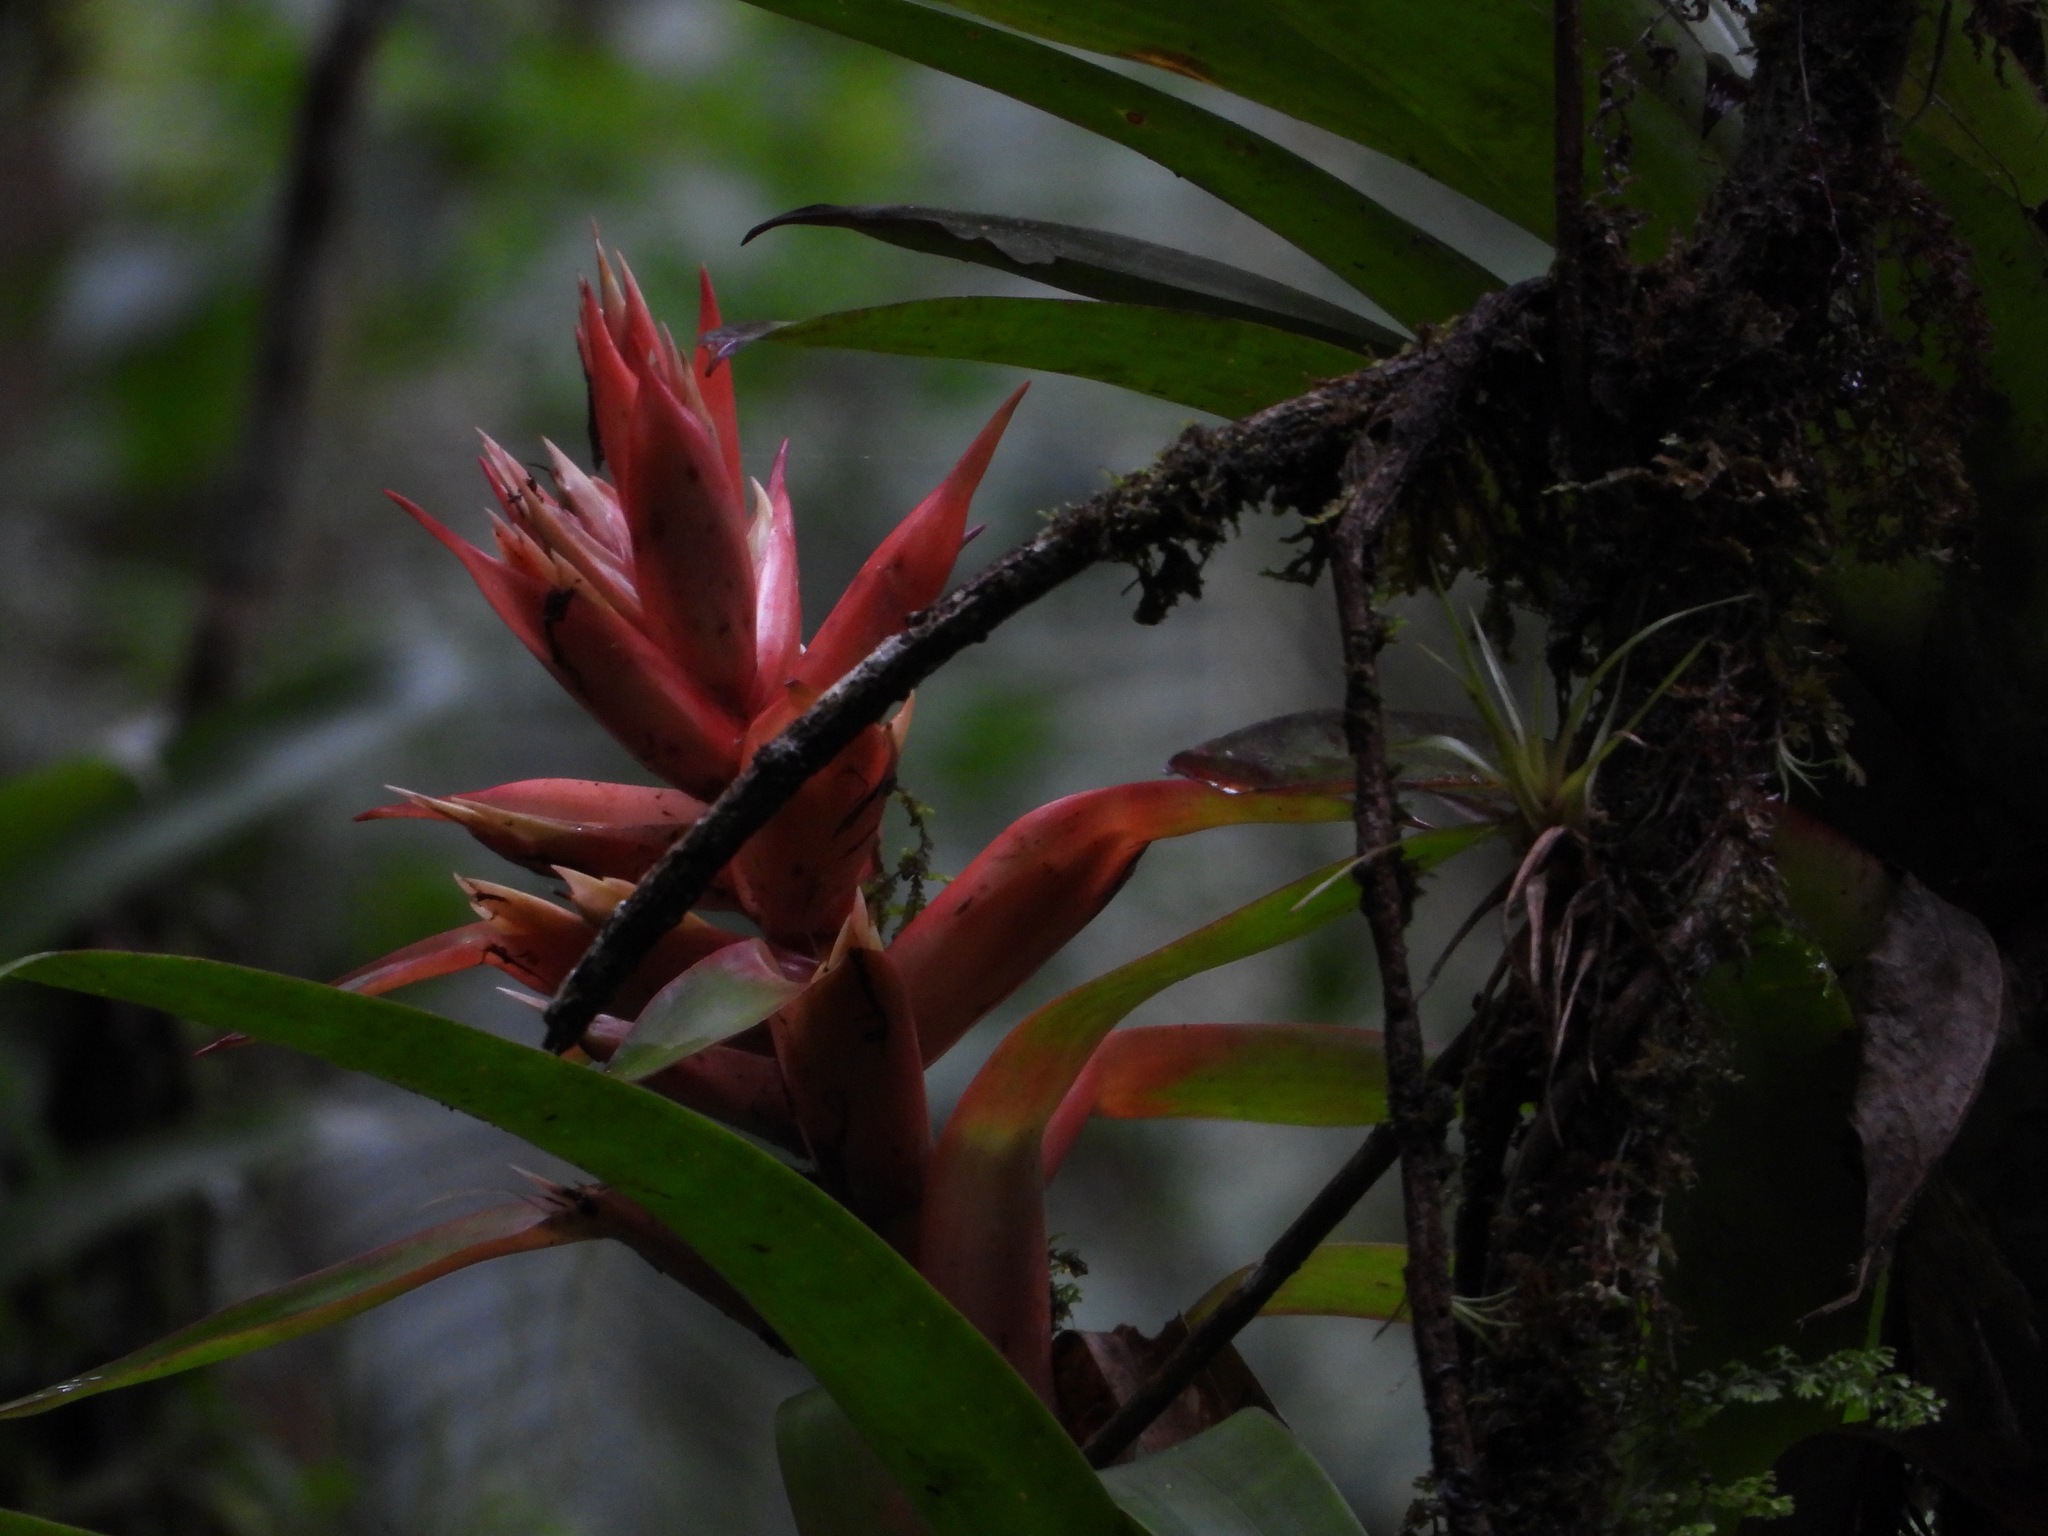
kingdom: Plantae
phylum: Tracheophyta
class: Liliopsida
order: Poales
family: Bromeliaceae
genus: Tillandsia
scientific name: Tillandsia deflexa
